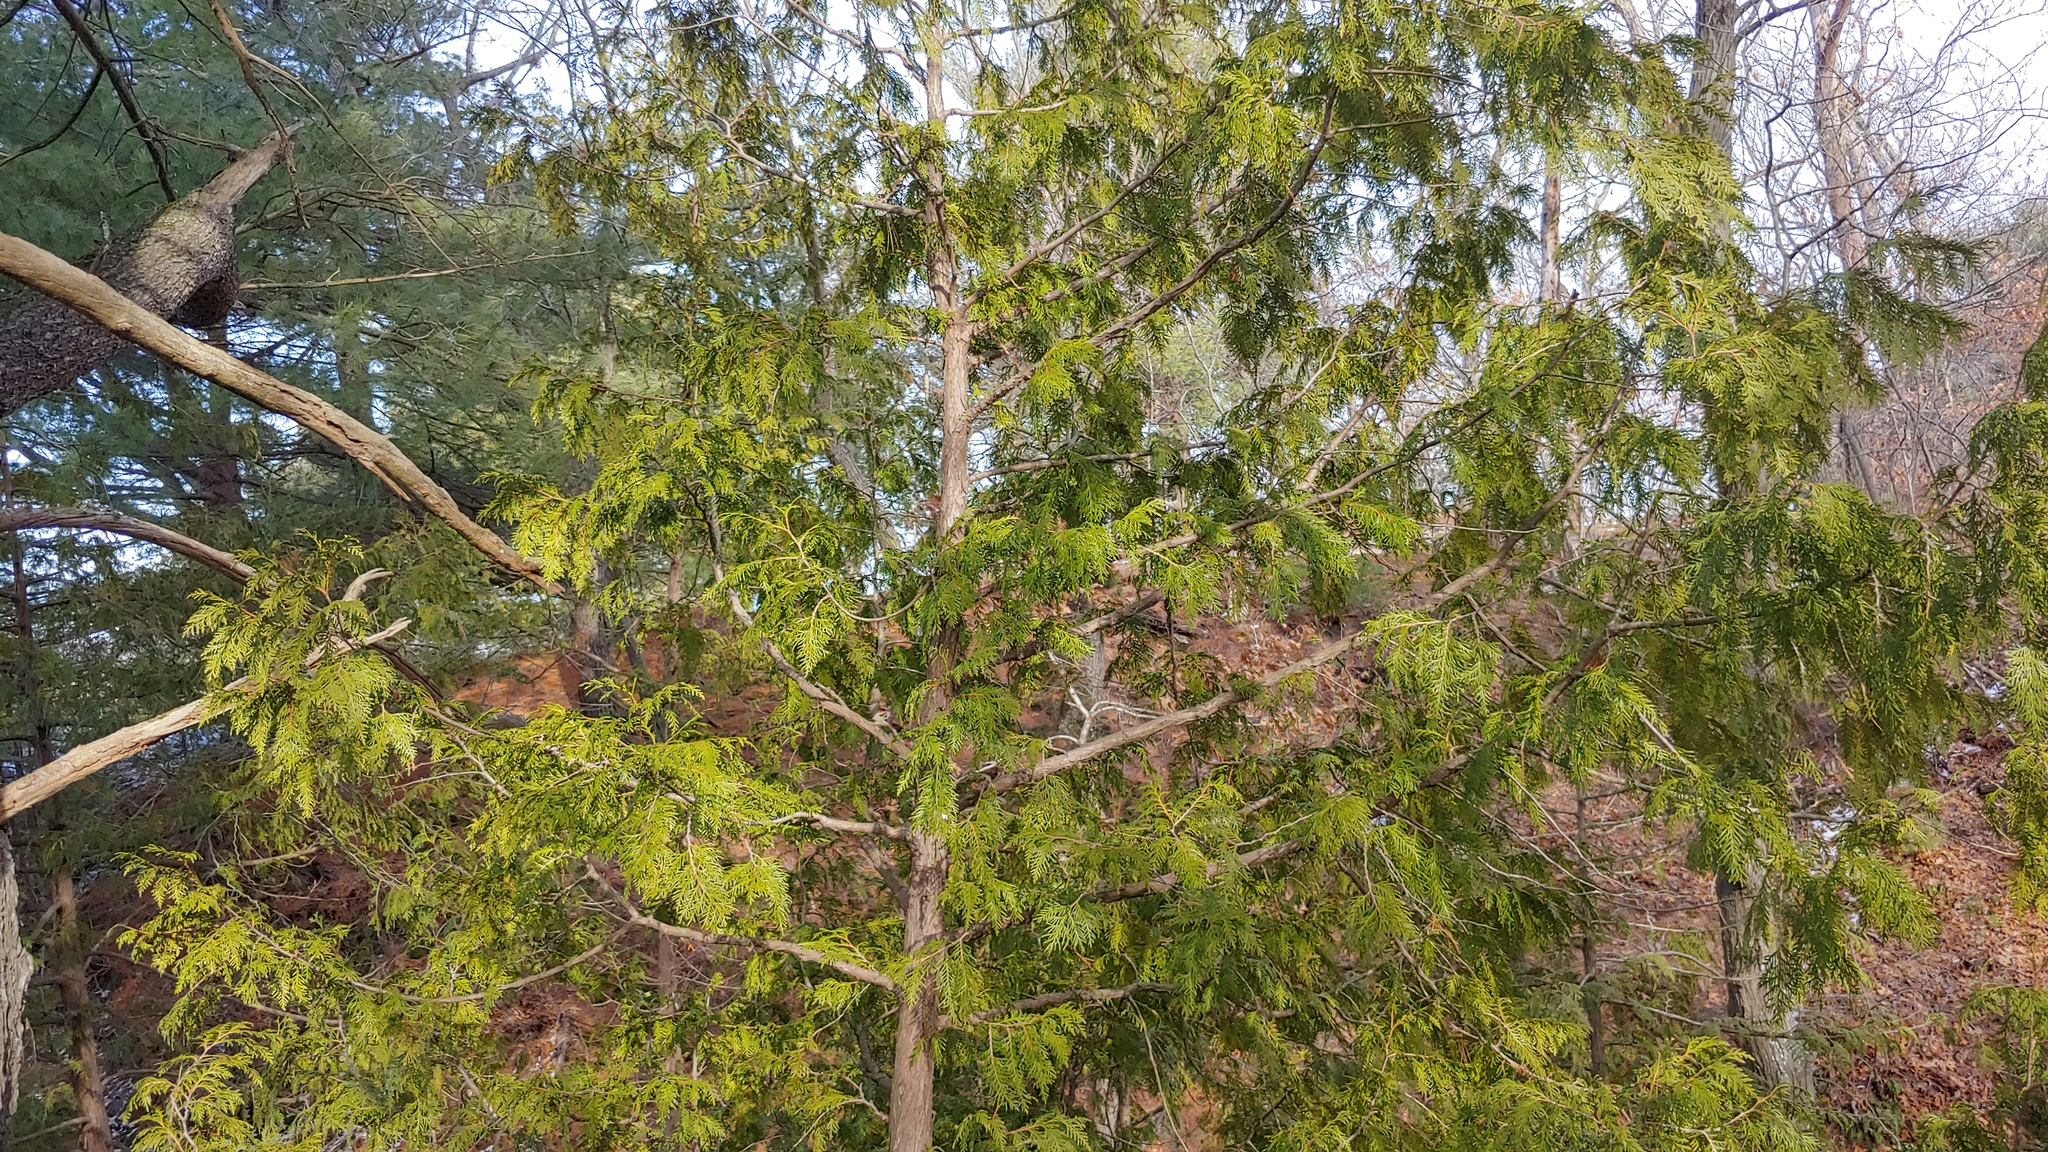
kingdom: Plantae
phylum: Tracheophyta
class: Pinopsida
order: Pinales
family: Cupressaceae
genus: Thuja
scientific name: Thuja occidentalis
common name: Northern white-cedar
